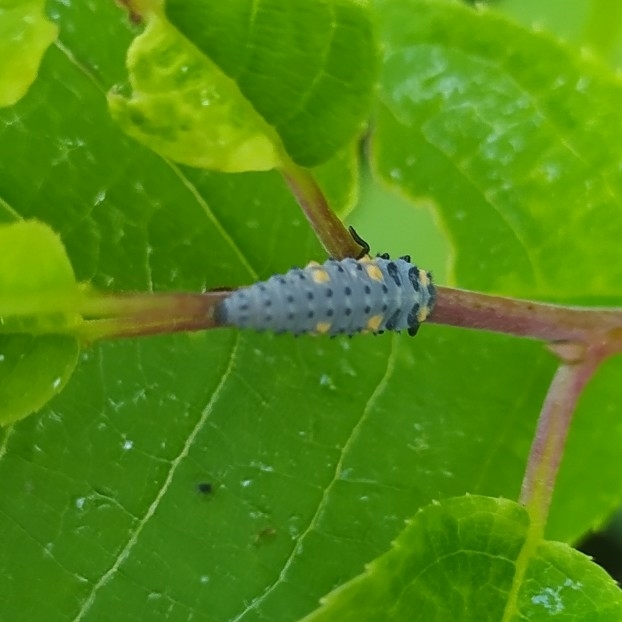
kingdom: Animalia
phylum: Arthropoda
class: Insecta
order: Coleoptera
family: Coccinellidae
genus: Coccinella
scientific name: Coccinella septempunctata
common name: Sevenspotted lady beetle
